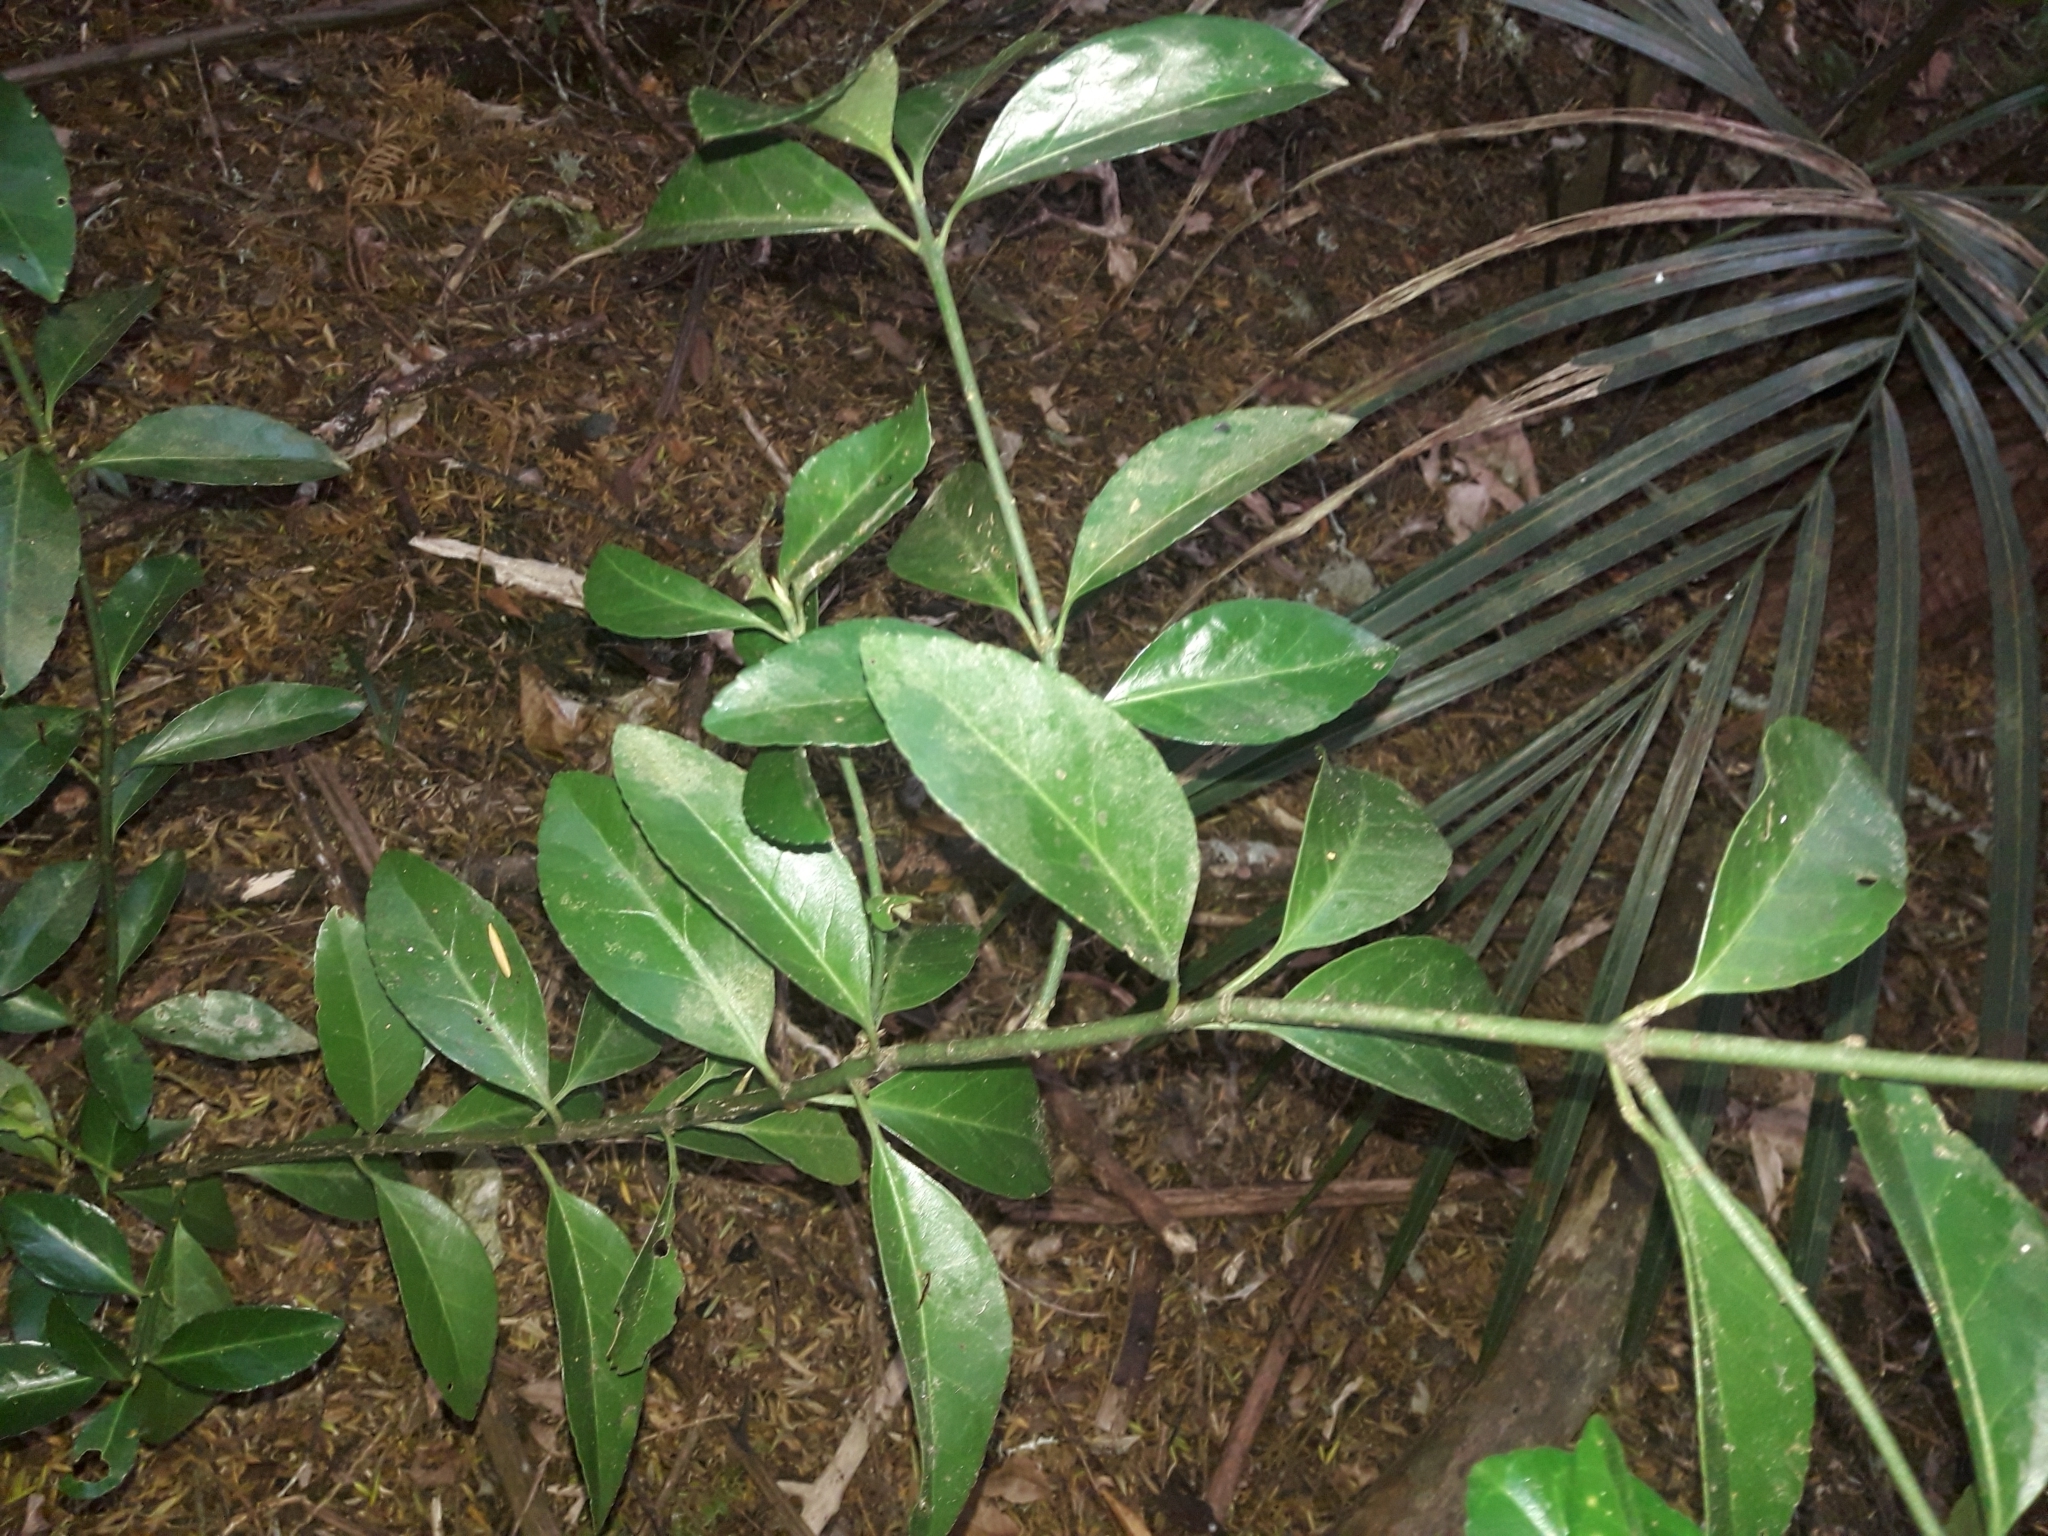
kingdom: Plantae
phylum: Tracheophyta
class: Magnoliopsida
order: Celastrales
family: Celastraceae
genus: Euonymus
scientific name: Euonymus japonicus
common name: Japanese spindletree
